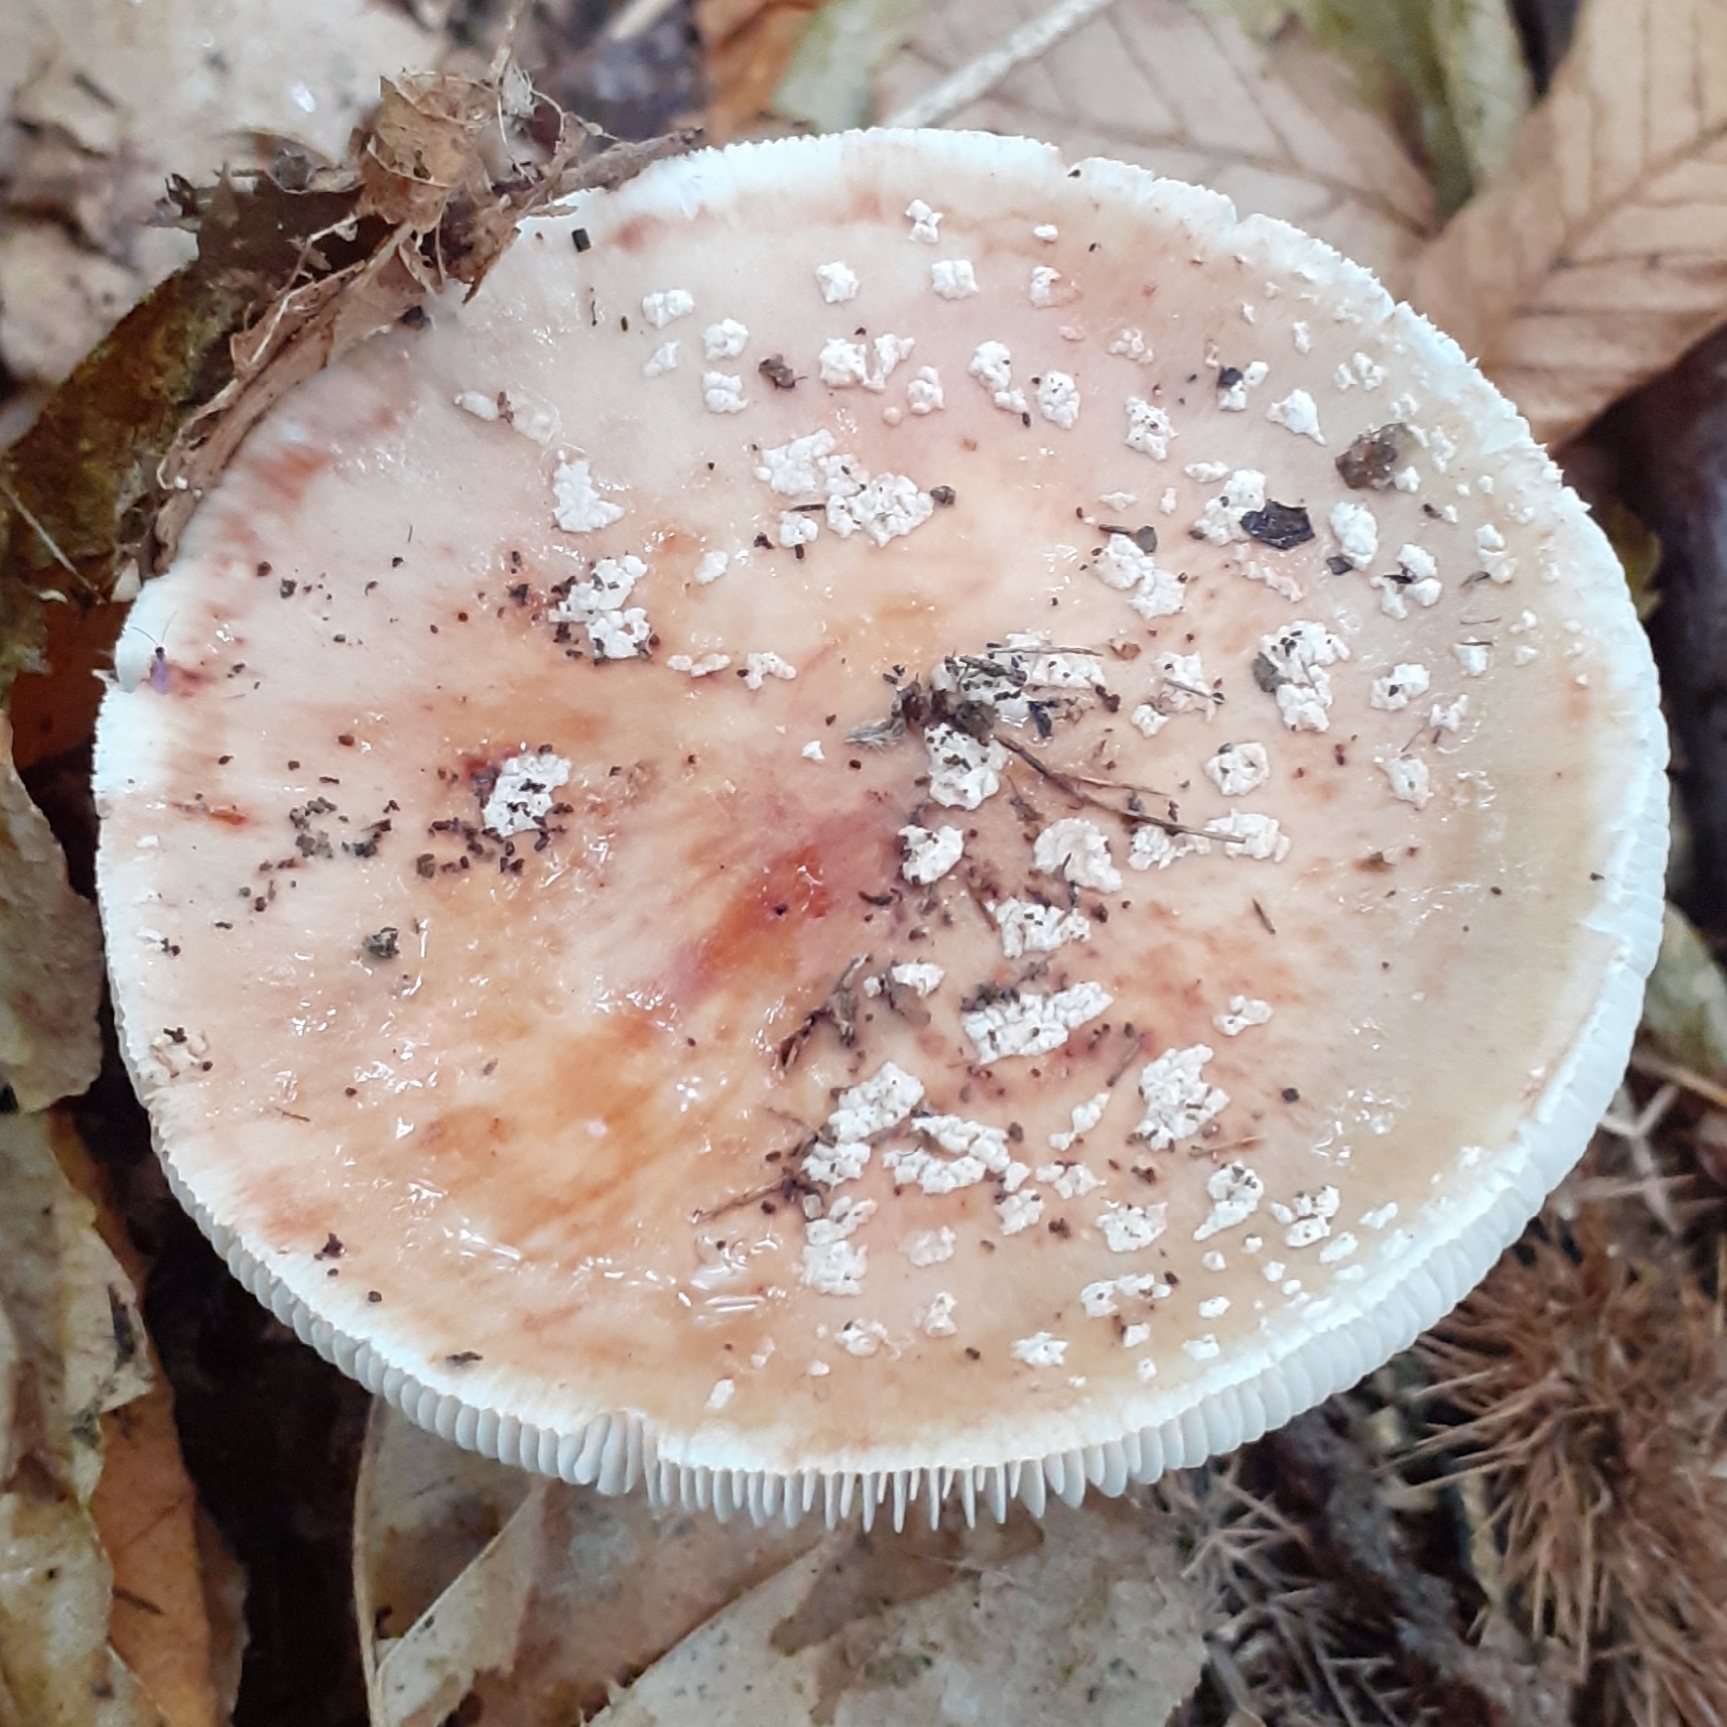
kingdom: Fungi
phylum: Basidiomycota
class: Agaricomycetes
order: Agaricales
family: Amanitaceae
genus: Amanita
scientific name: Amanita rubescens
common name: Blusher
